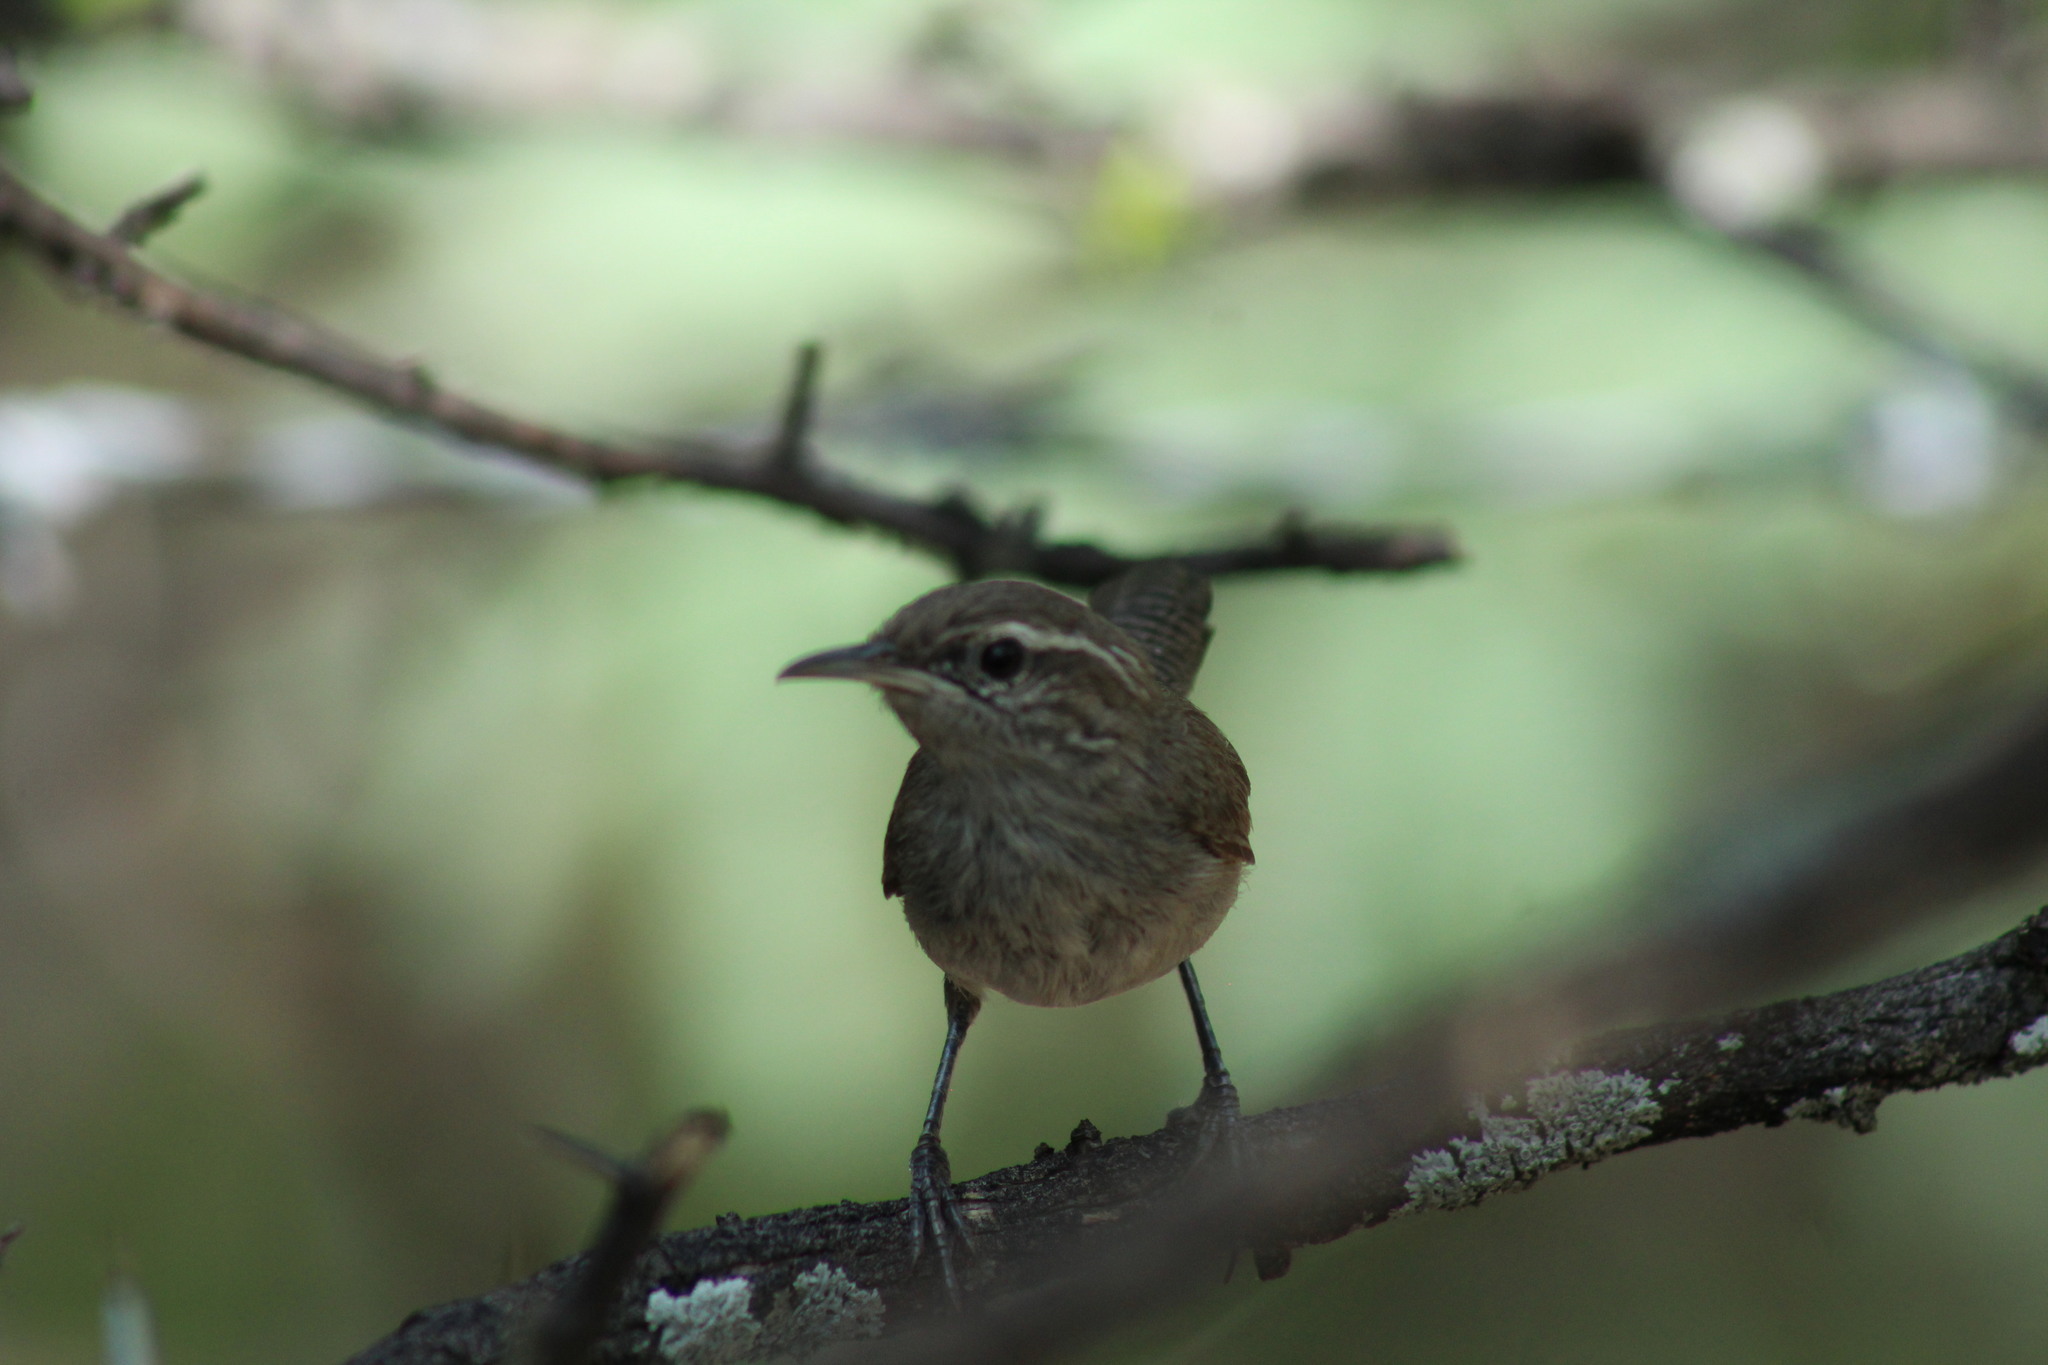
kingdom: Animalia
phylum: Chordata
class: Aves
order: Passeriformes
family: Troglodytidae
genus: Thryomanes
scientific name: Thryomanes bewickii
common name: Bewick's wren
